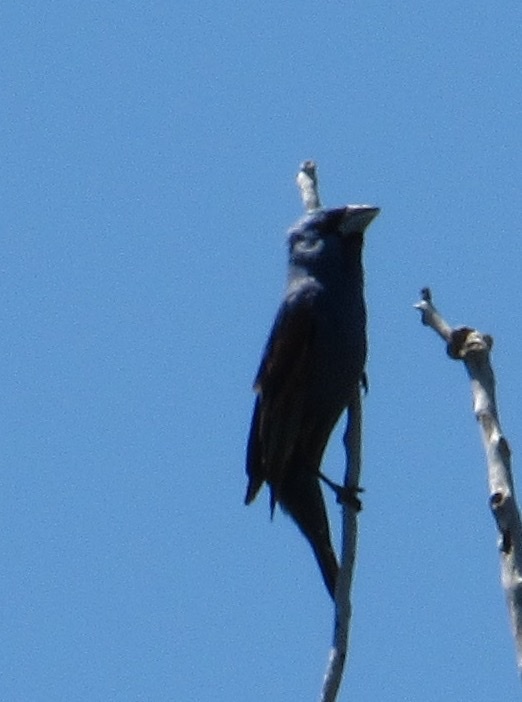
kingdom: Animalia
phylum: Chordata
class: Aves
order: Passeriformes
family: Cardinalidae
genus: Passerina
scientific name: Passerina caerulea
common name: Blue grosbeak
